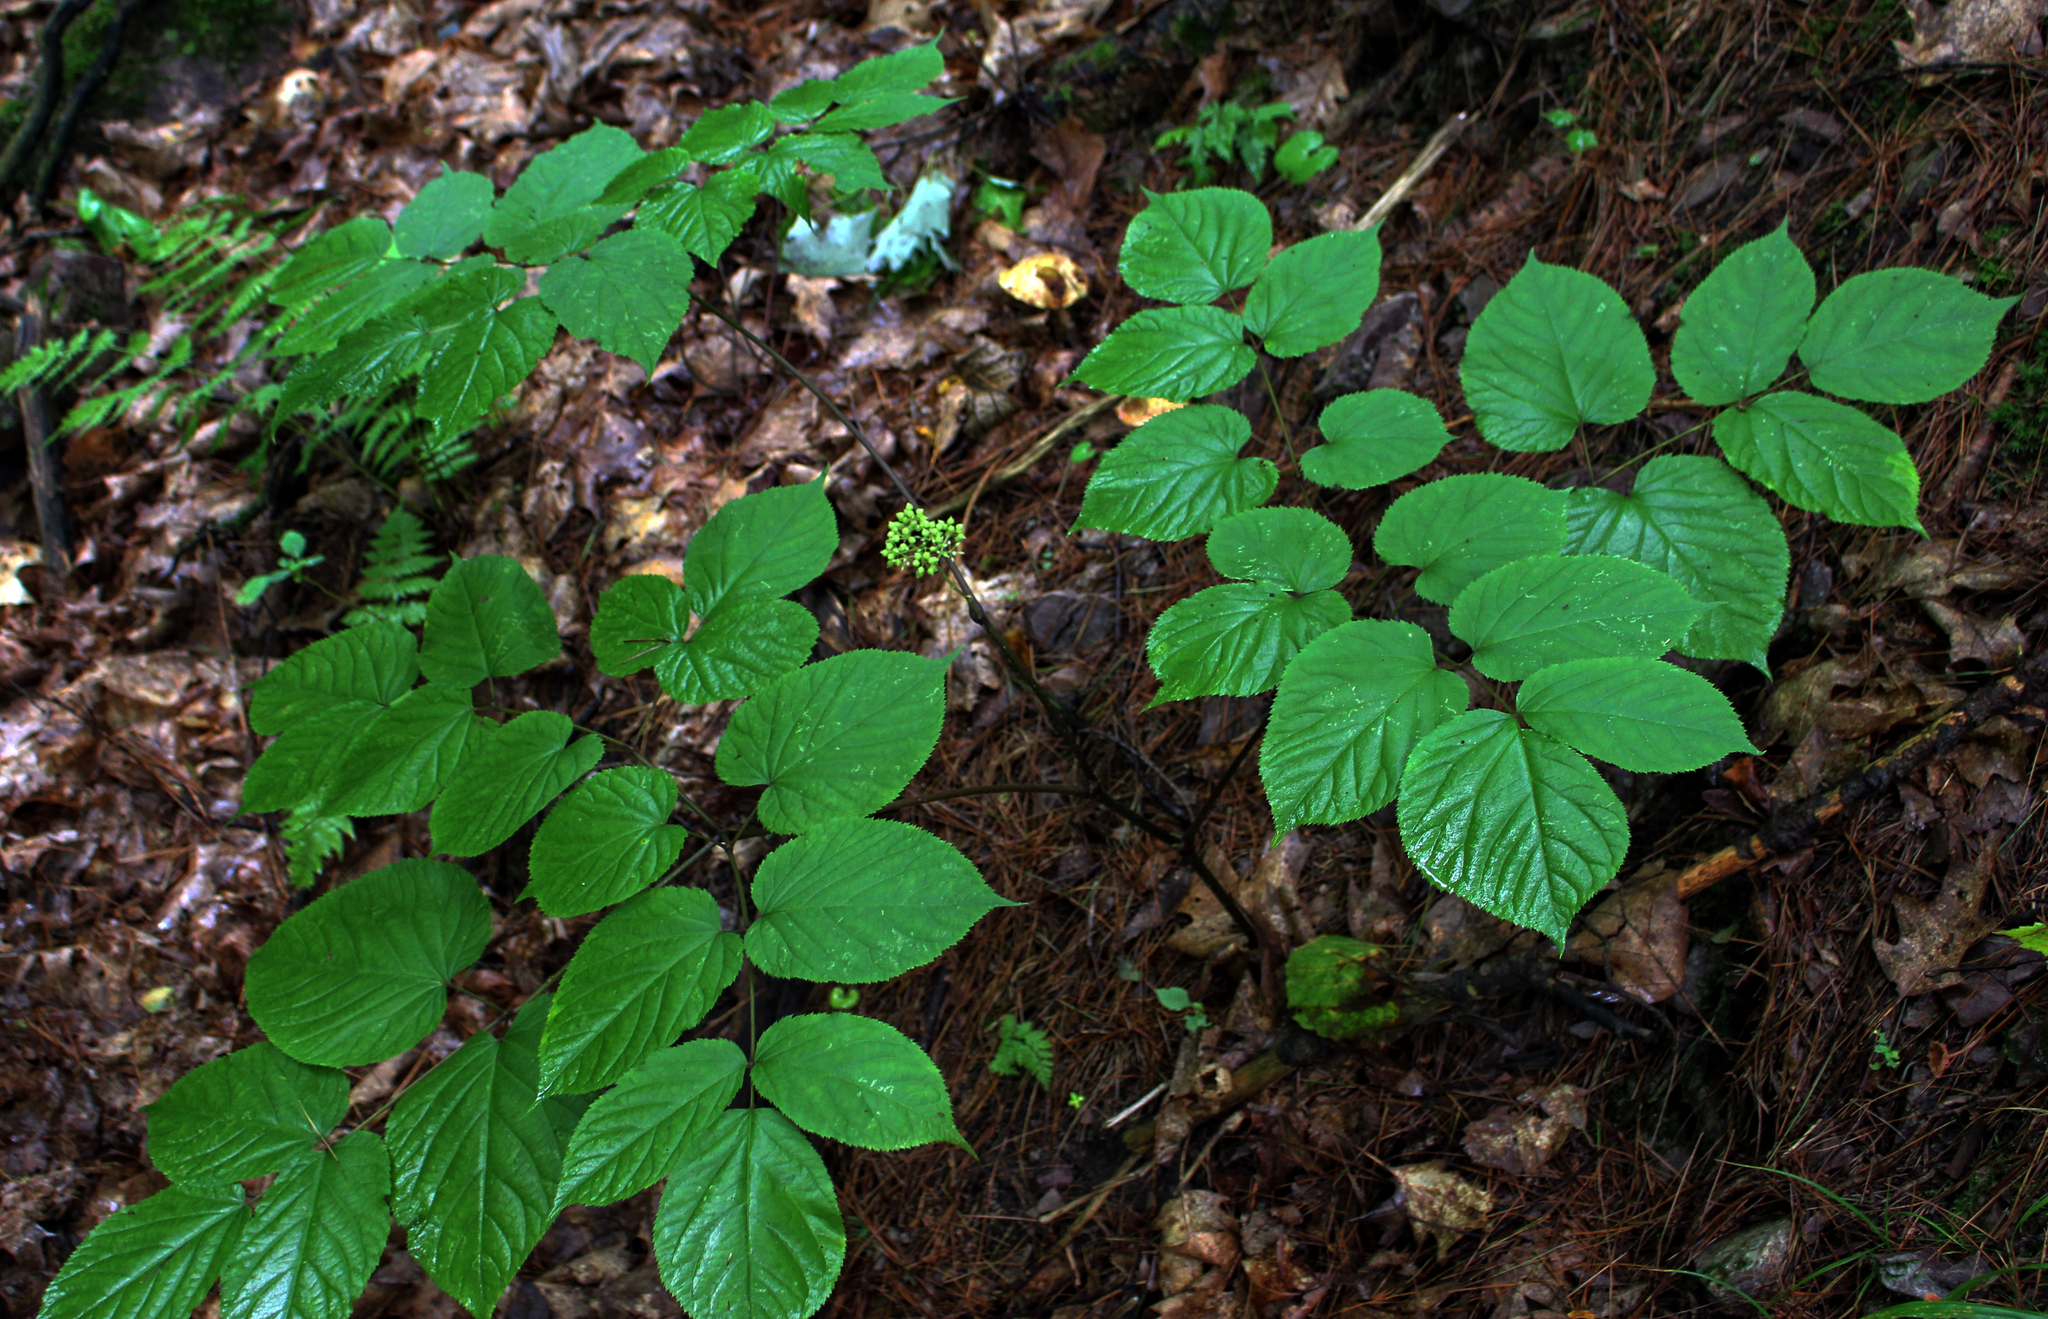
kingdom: Plantae
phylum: Tracheophyta
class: Magnoliopsida
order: Apiales
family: Araliaceae
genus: Aralia
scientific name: Aralia racemosa
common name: American-spikenard
